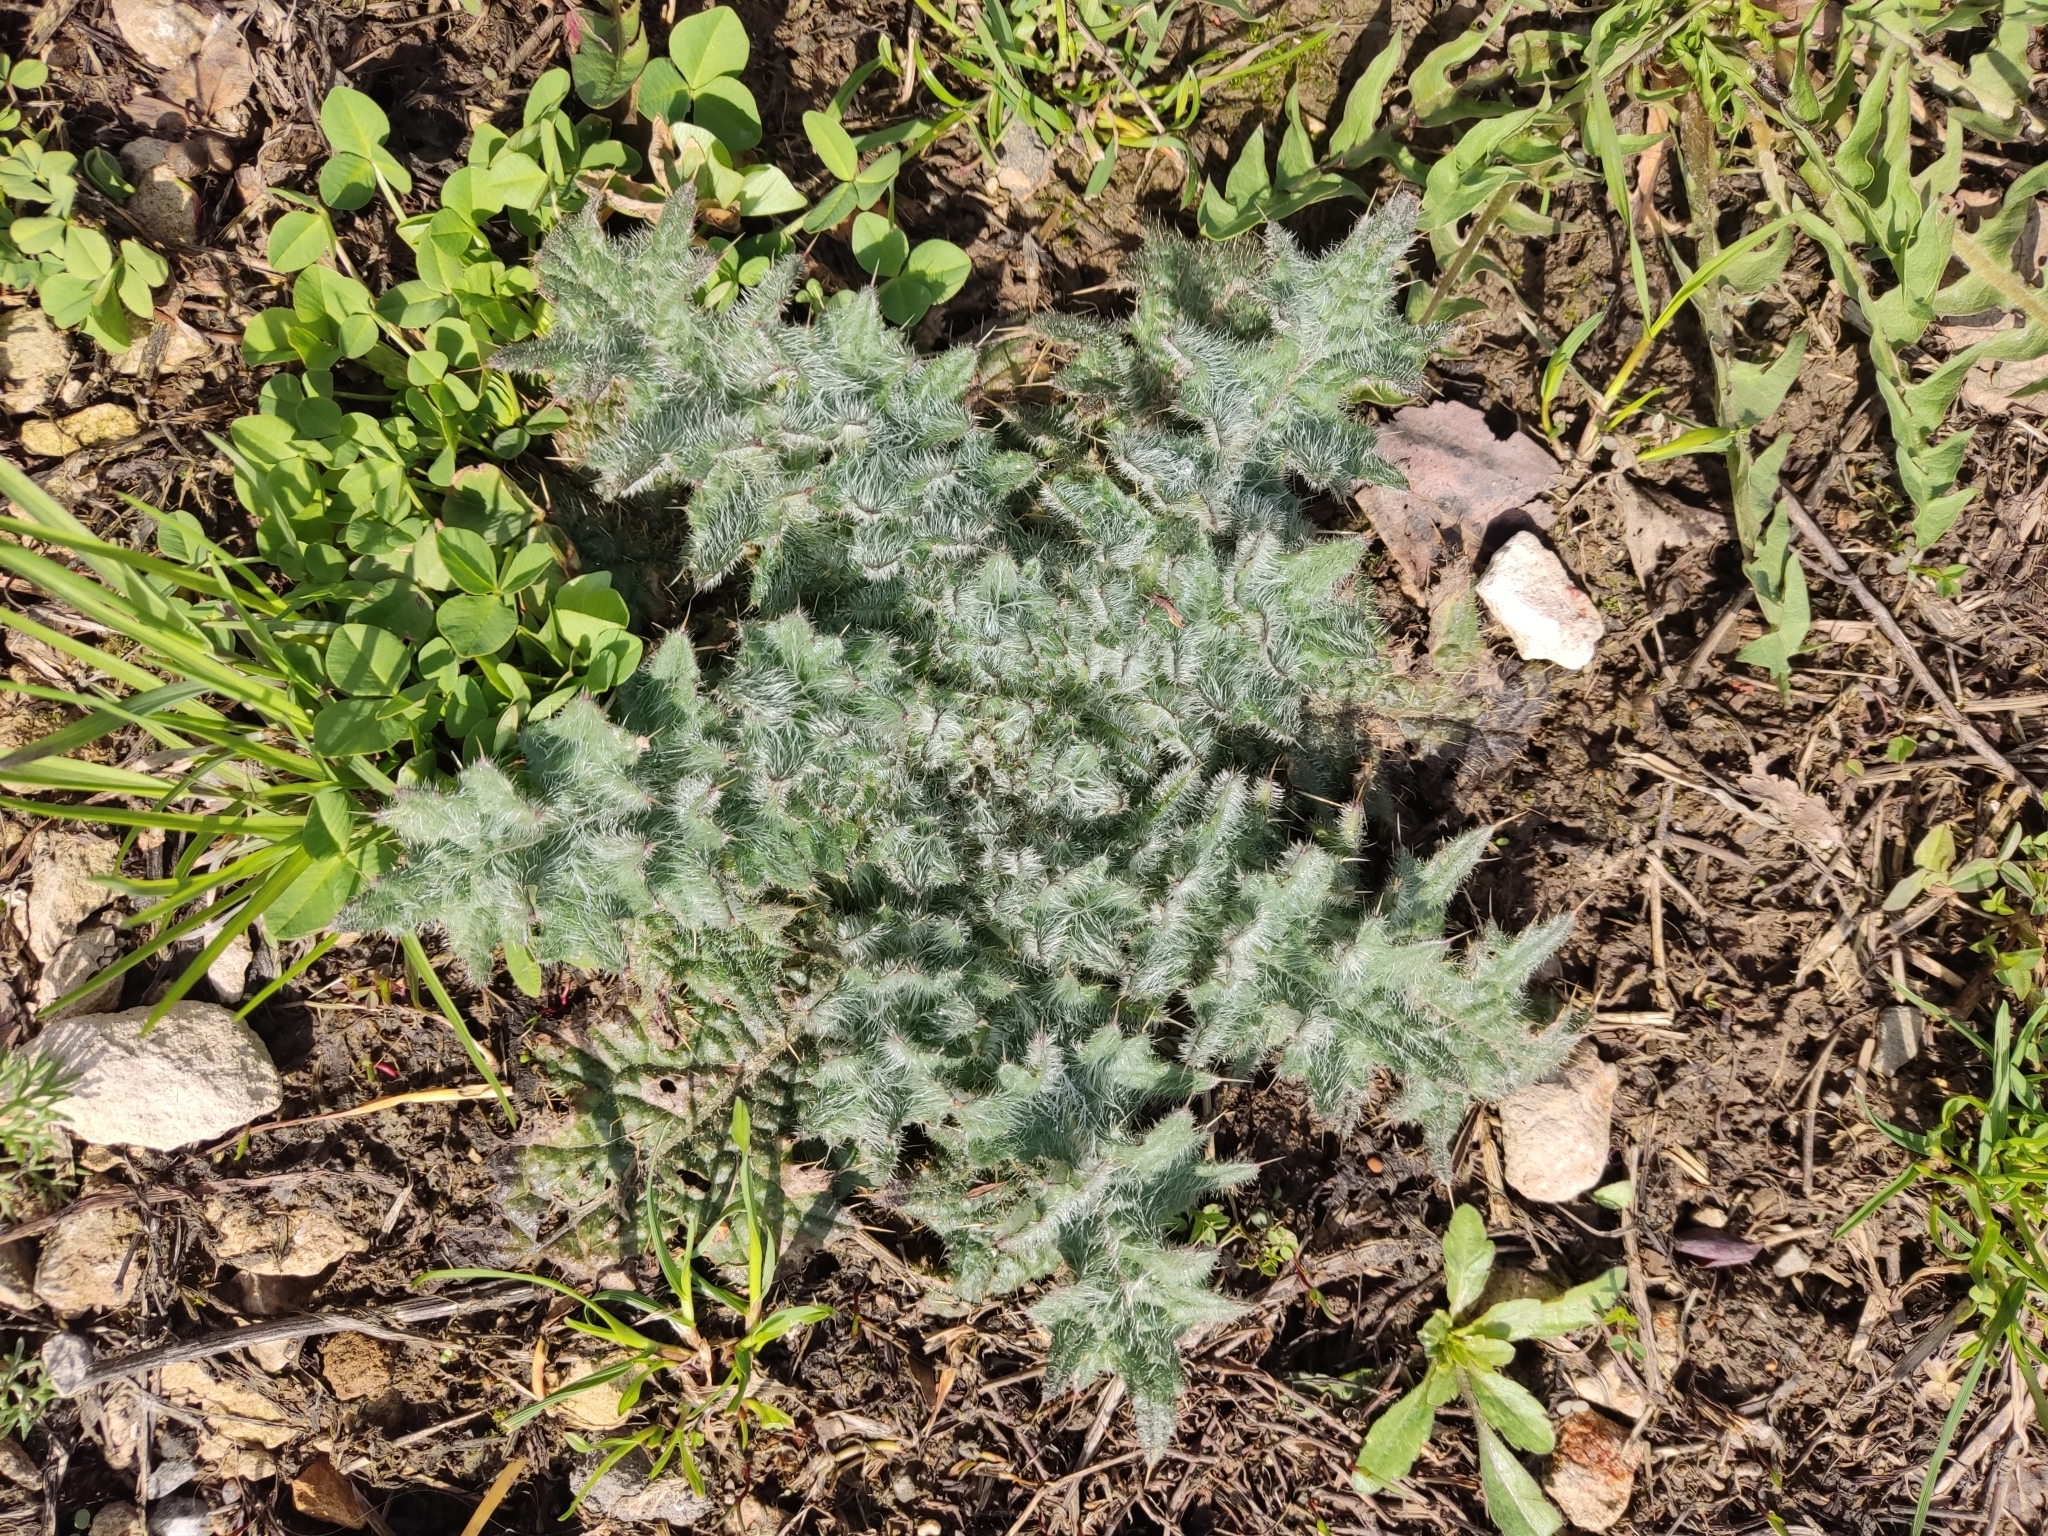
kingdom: Plantae
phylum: Tracheophyta
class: Magnoliopsida
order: Asterales
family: Asteraceae
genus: Cirsium
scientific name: Cirsium vulgare
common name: Bull thistle
